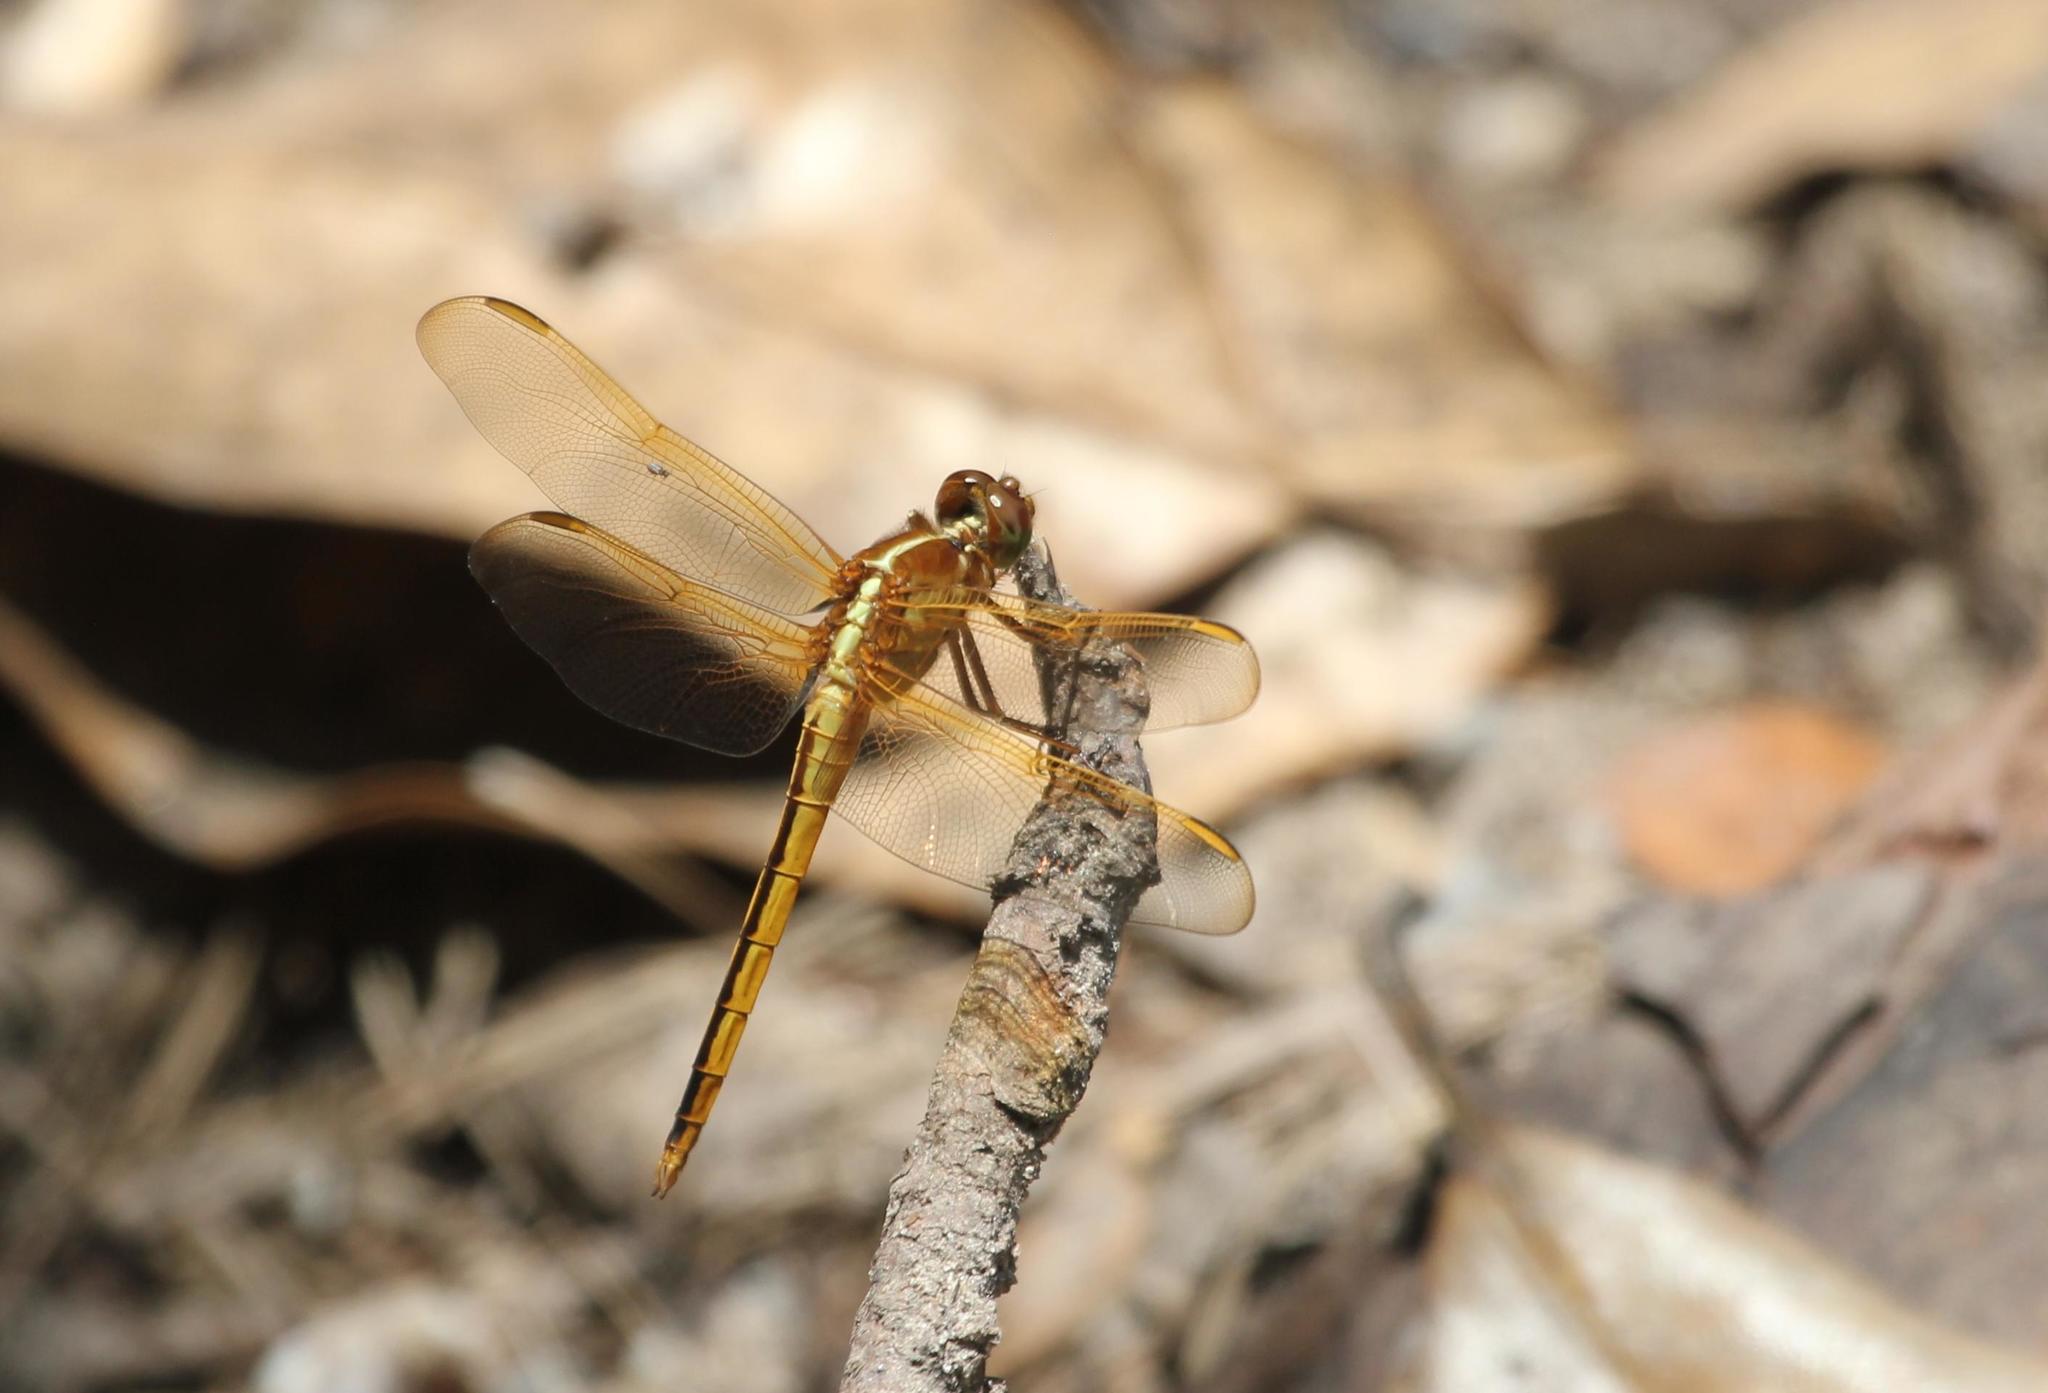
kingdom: Animalia
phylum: Arthropoda
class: Insecta
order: Odonata
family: Libellulidae
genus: Libellula
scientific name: Libellula needhami
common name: Needham's skimmer
